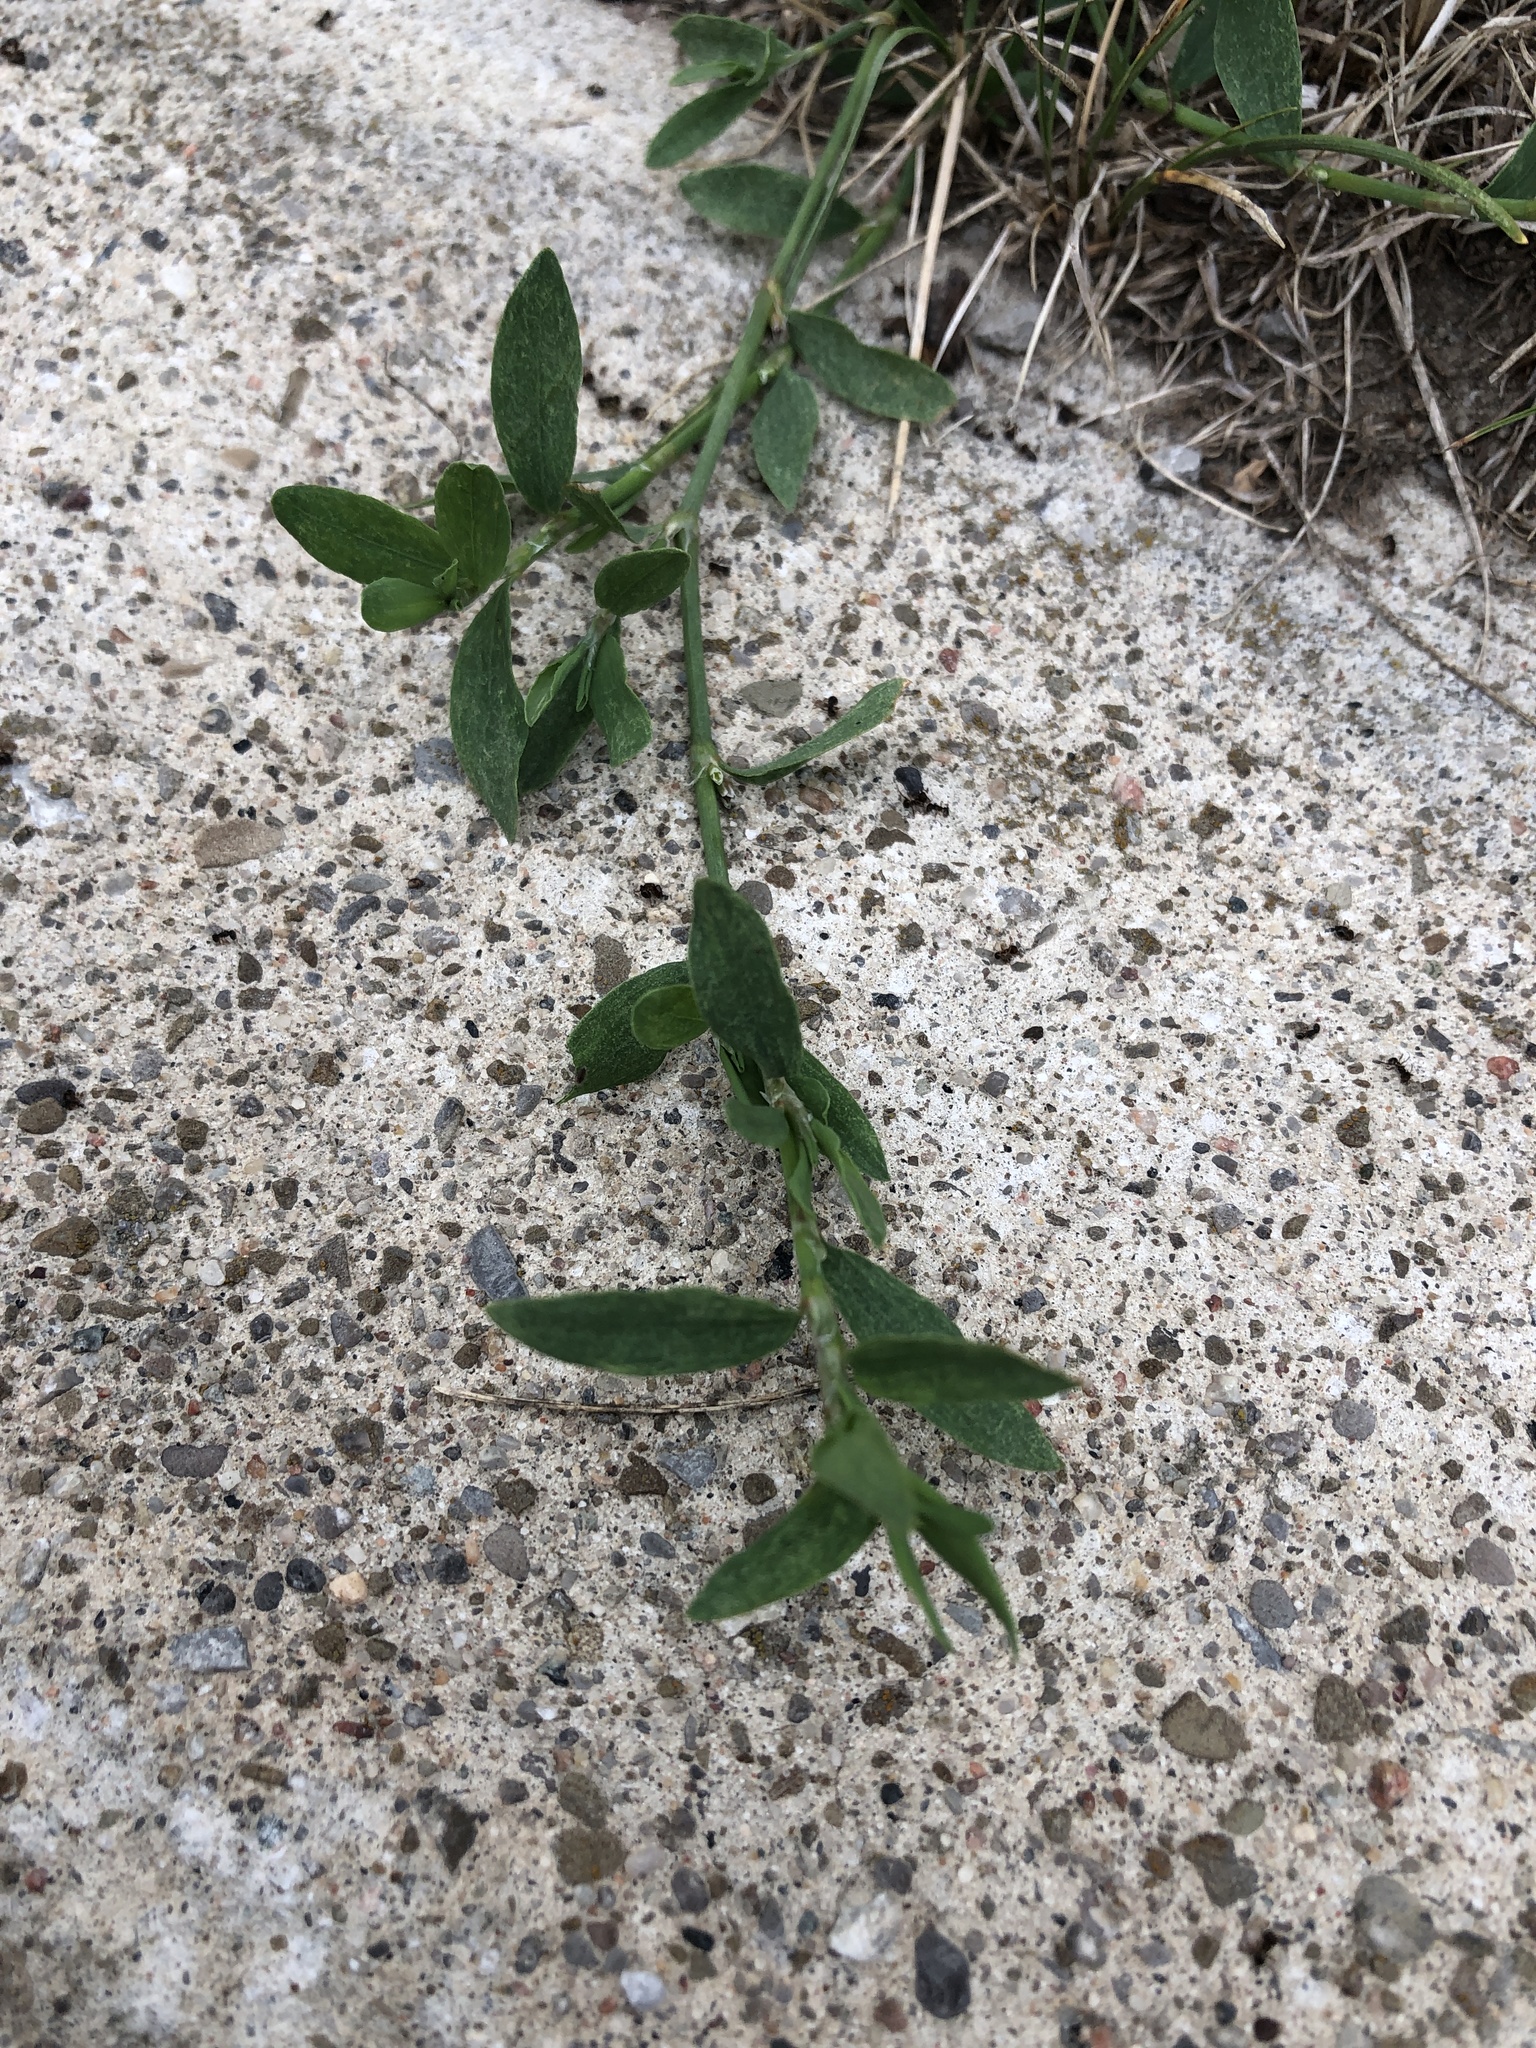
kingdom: Plantae
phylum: Tracheophyta
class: Magnoliopsida
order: Caryophyllales
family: Polygonaceae
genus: Polygonum
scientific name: Polygonum aviculare
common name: Prostrate knotweed
